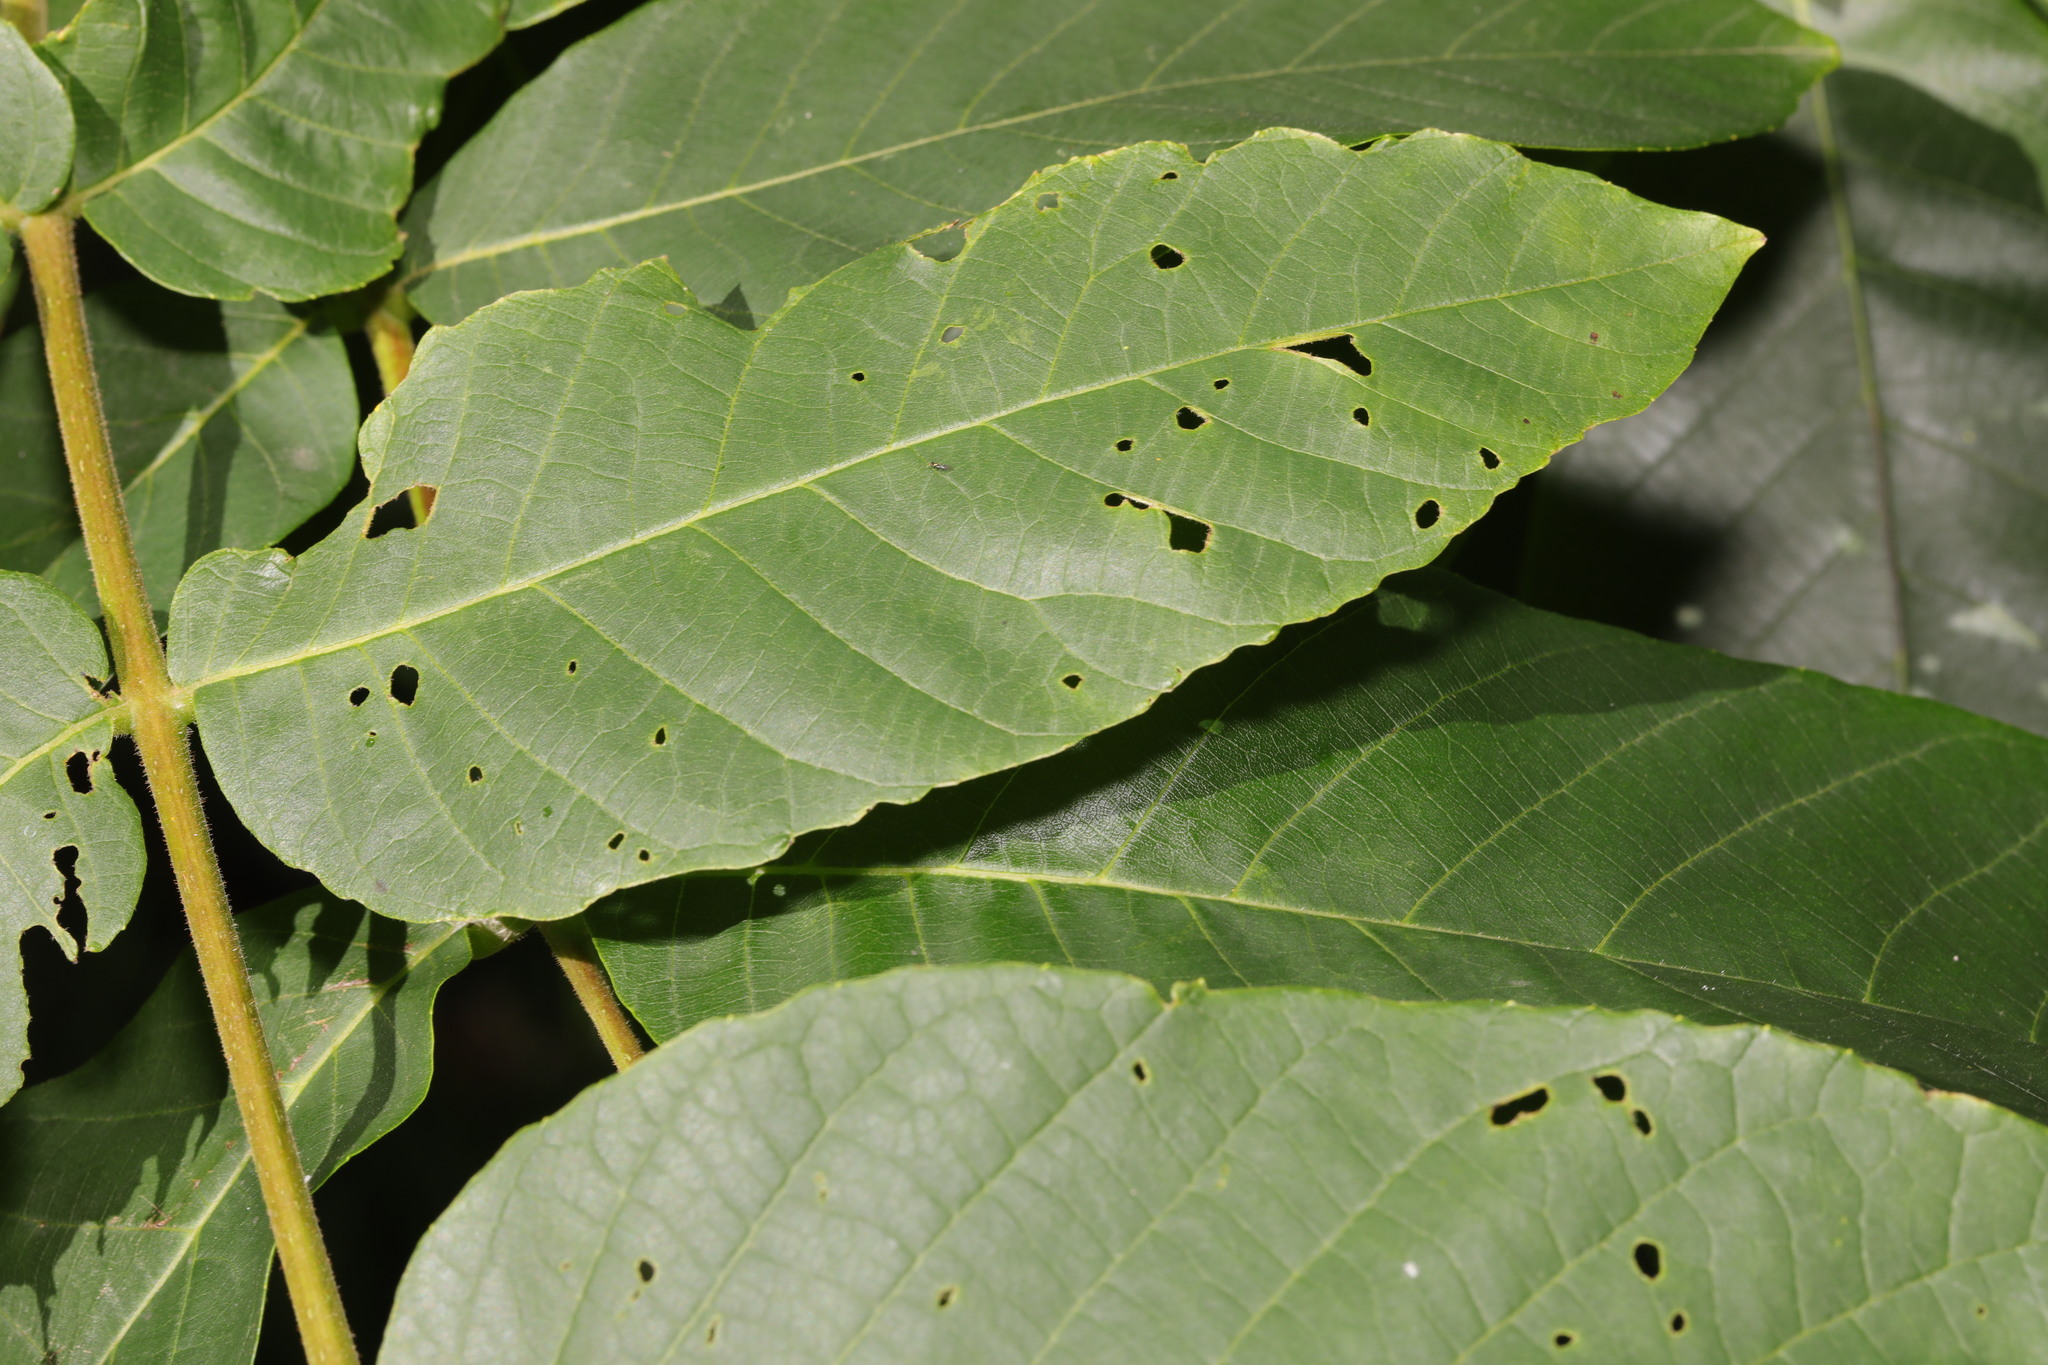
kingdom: Plantae
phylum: Tracheophyta
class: Magnoliopsida
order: Fagales
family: Juglandaceae
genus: Juglans
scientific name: Juglans regia
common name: Walnut
